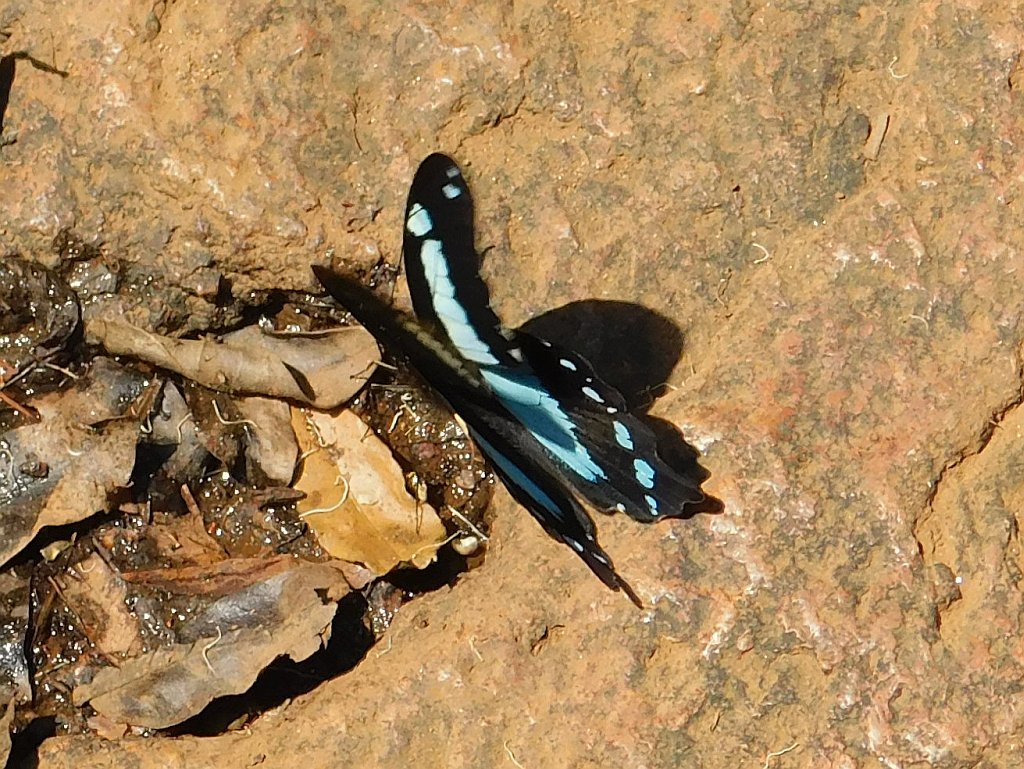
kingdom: Animalia
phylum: Arthropoda
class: Insecta
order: Lepidoptera
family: Papilionidae
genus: Papilio
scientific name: Papilio thuraui
